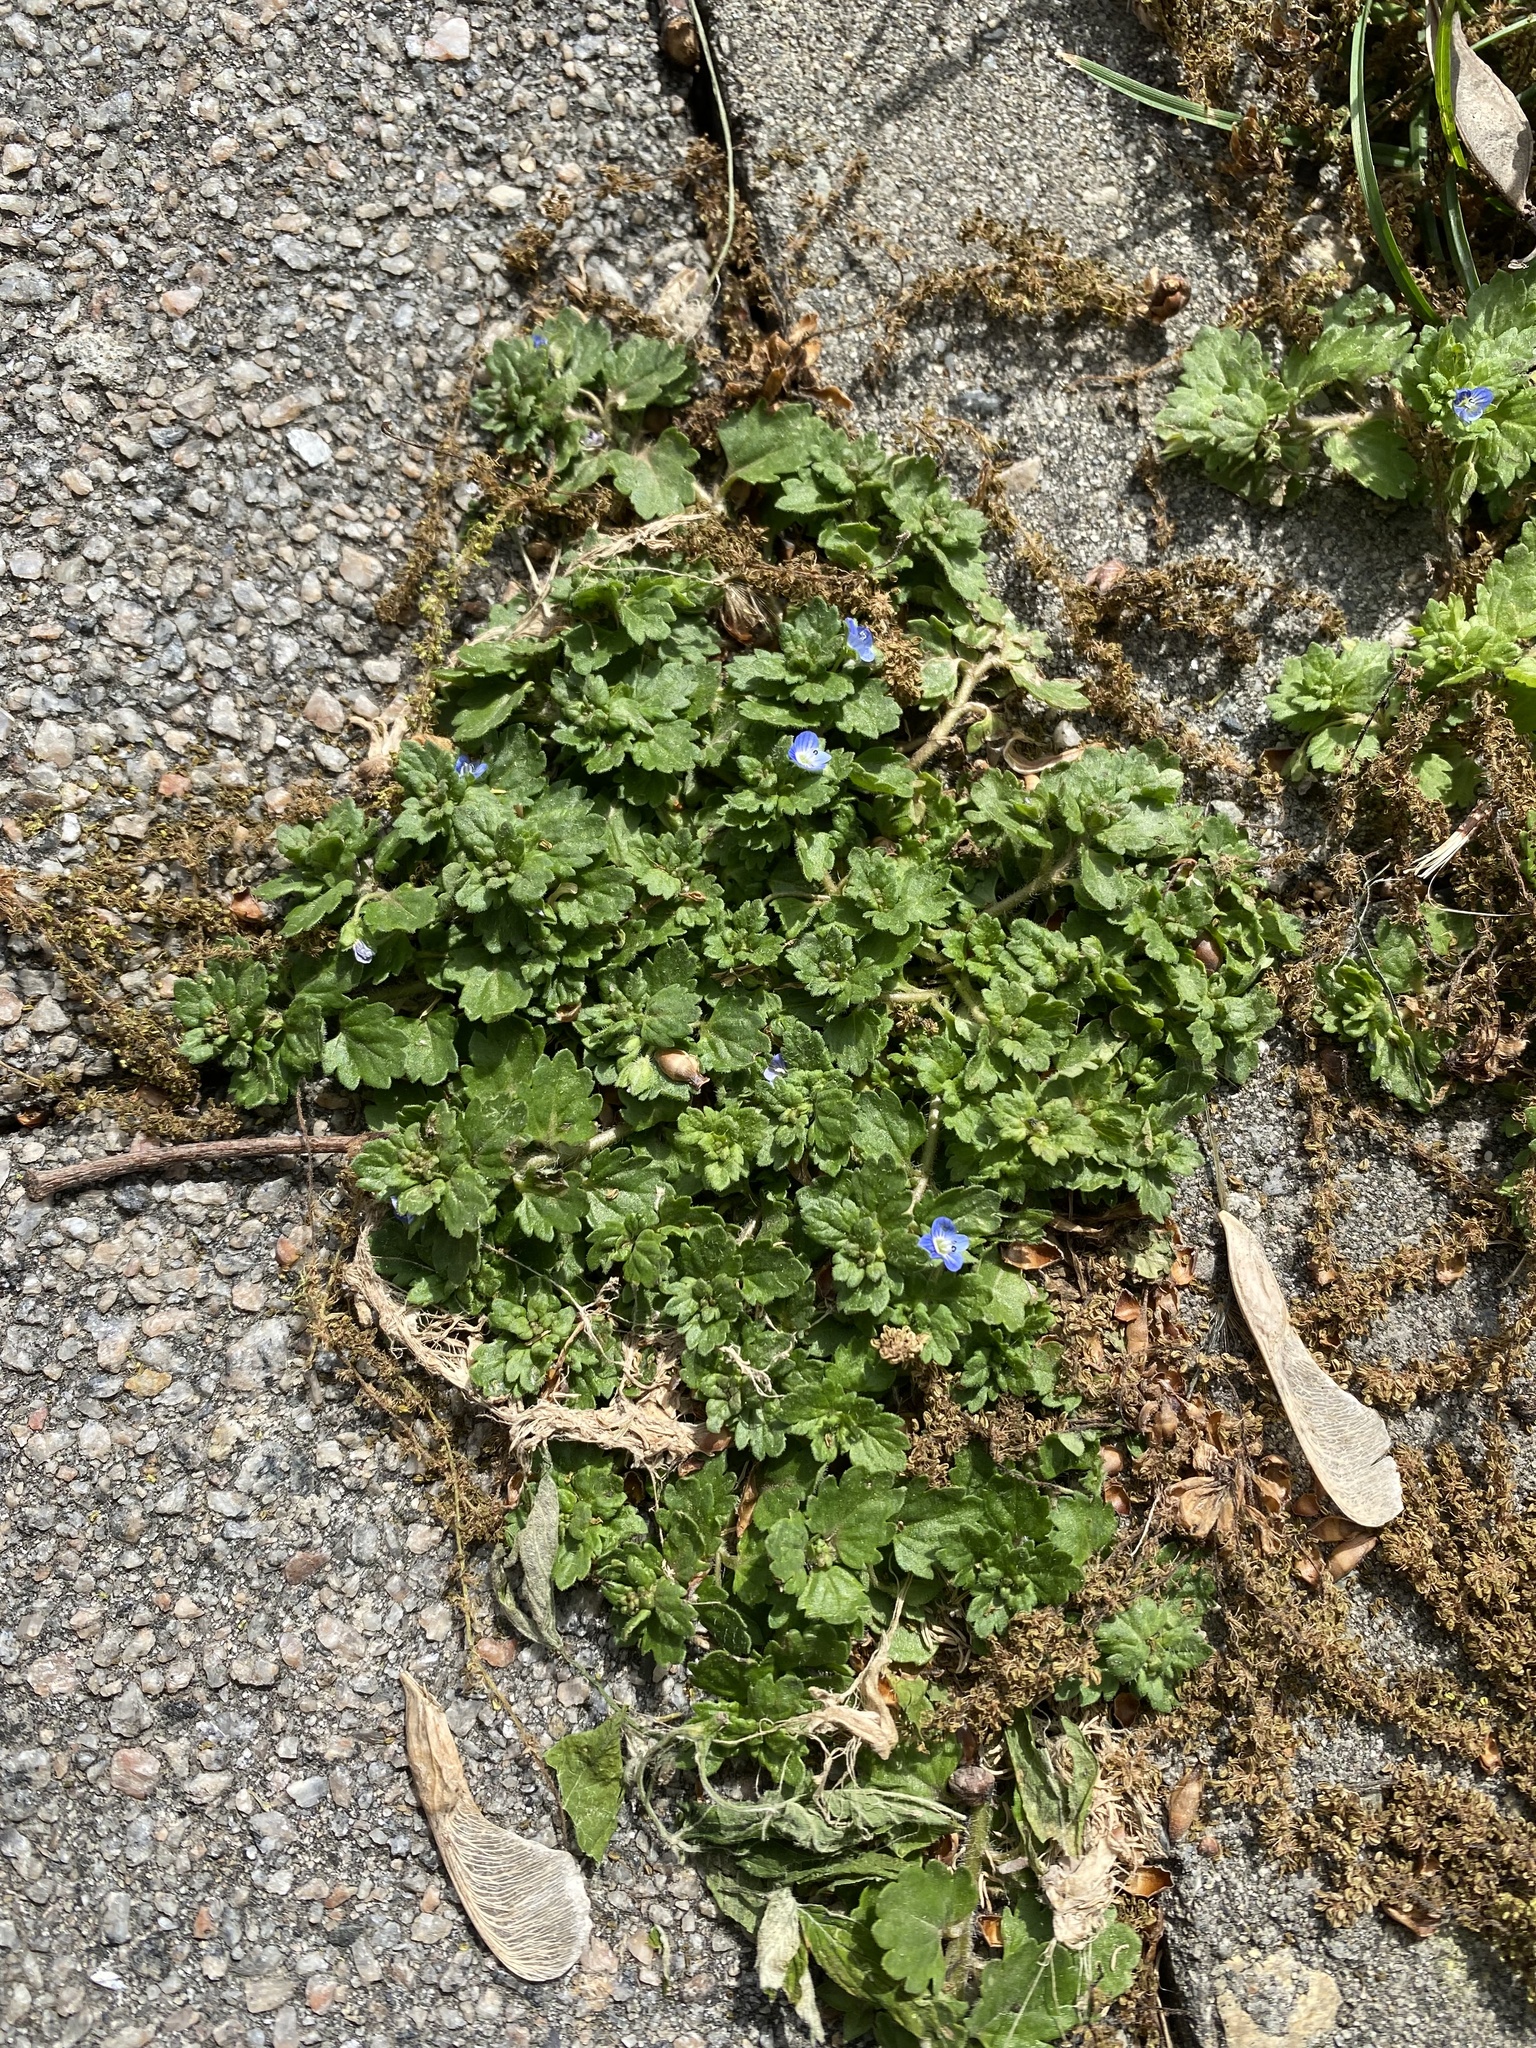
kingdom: Plantae
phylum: Tracheophyta
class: Magnoliopsida
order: Lamiales
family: Plantaginaceae
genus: Veronica
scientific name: Veronica polita
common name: Grey field-speedwell
